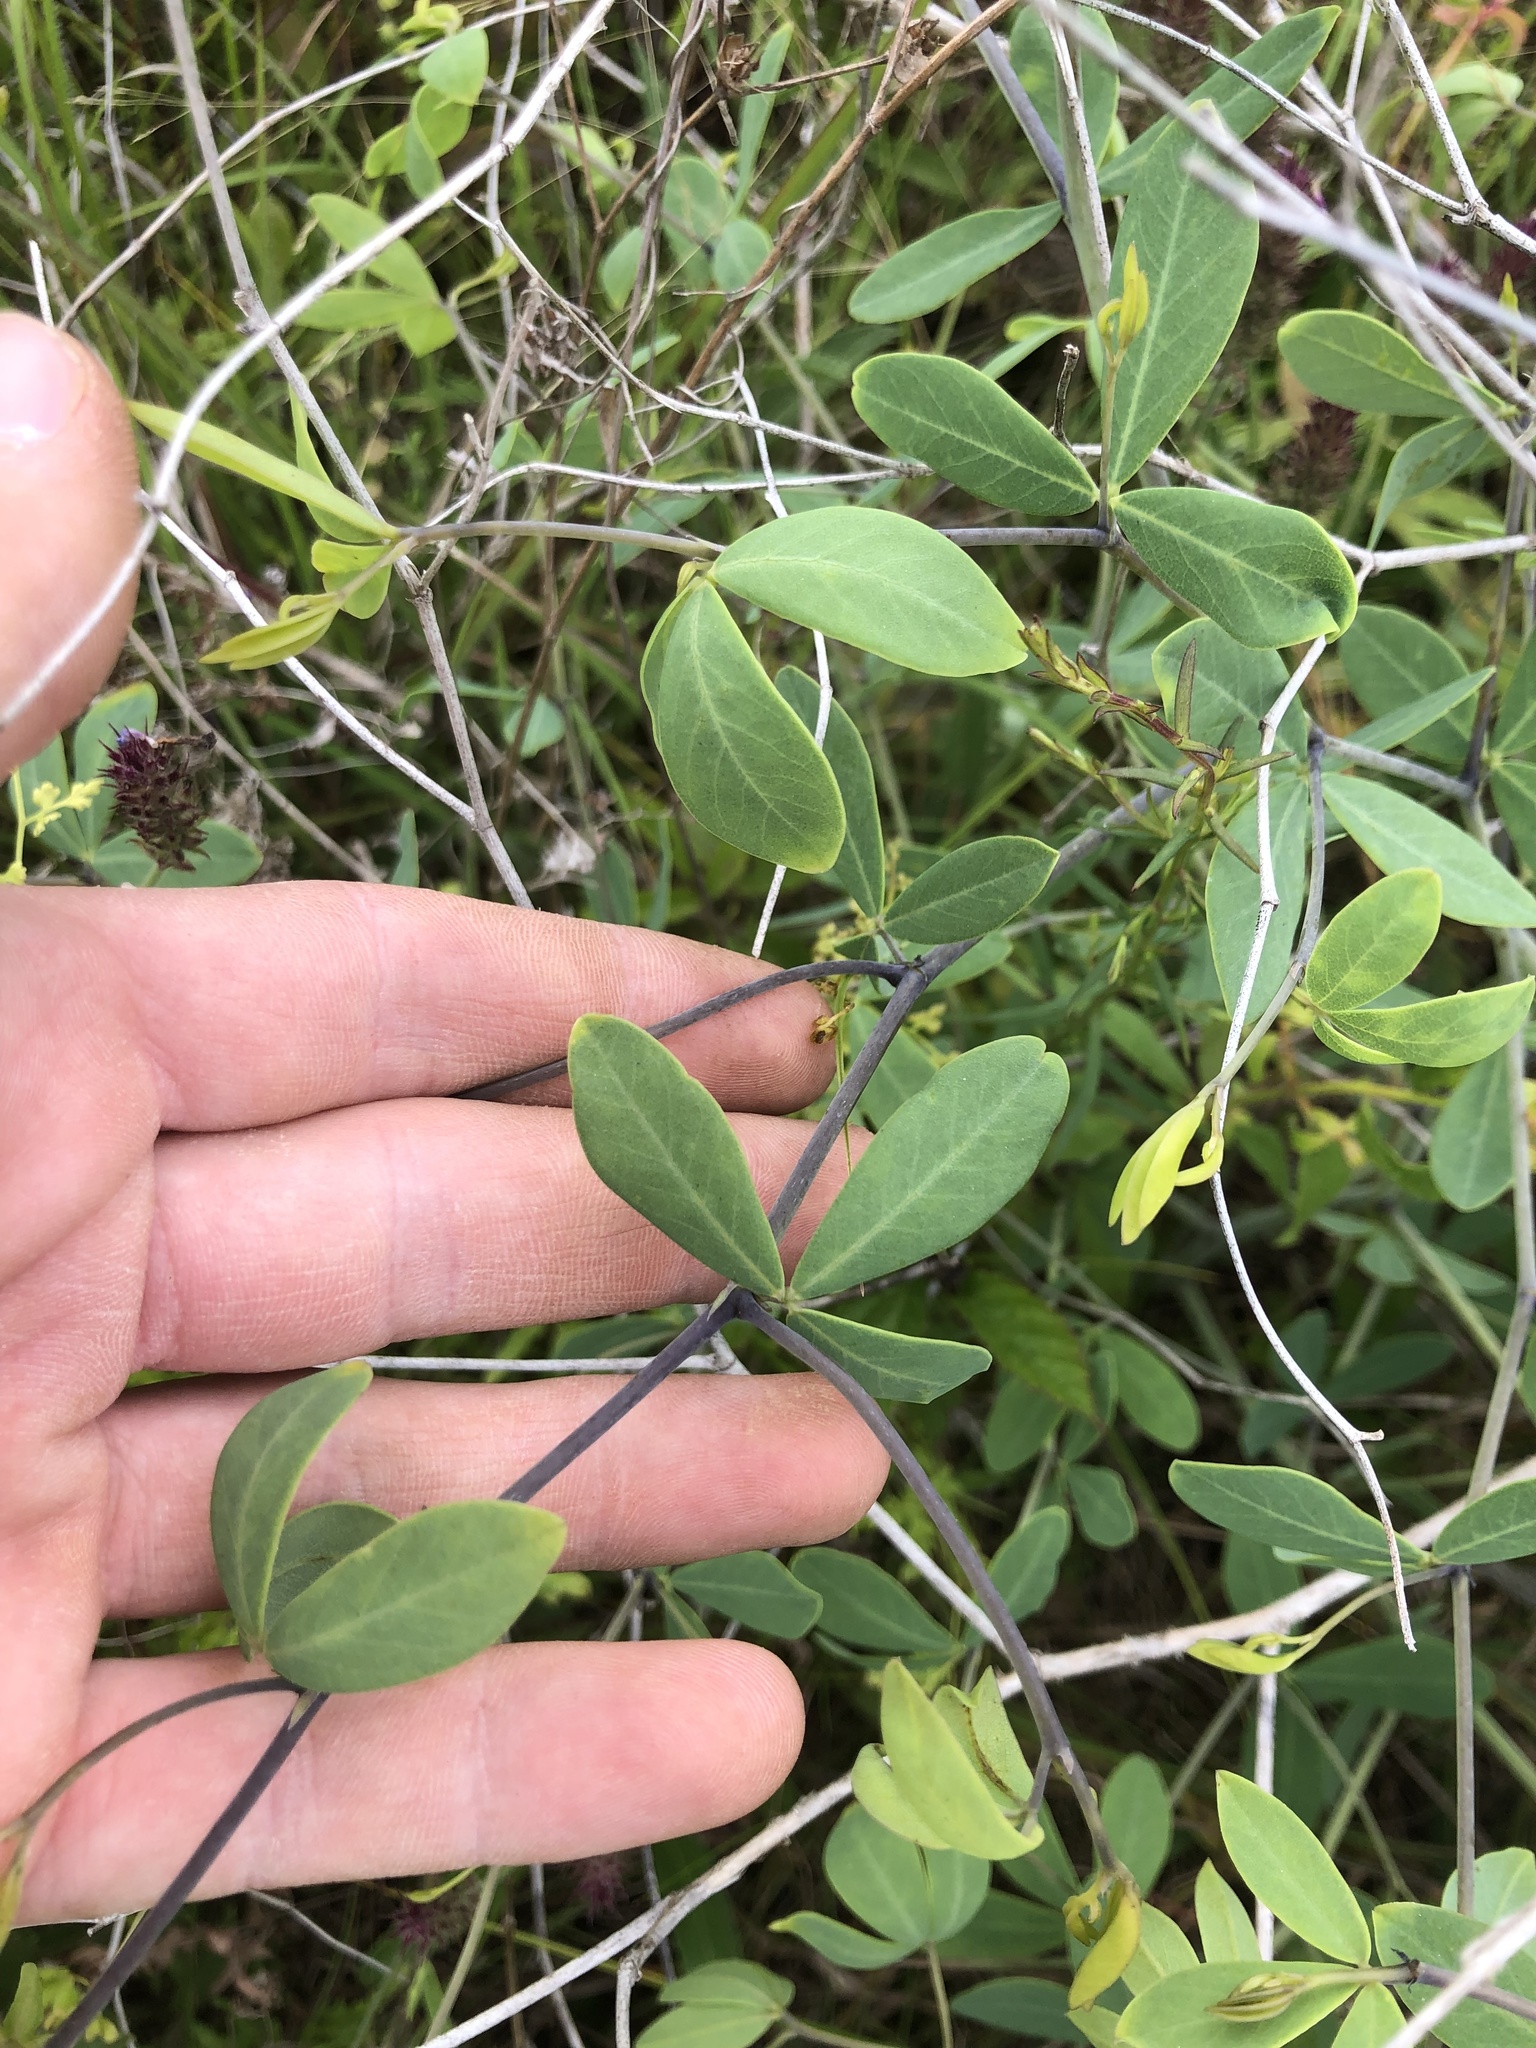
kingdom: Plantae
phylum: Tracheophyta
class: Magnoliopsida
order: Fabales
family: Fabaceae
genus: Baptisia
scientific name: Baptisia alba
